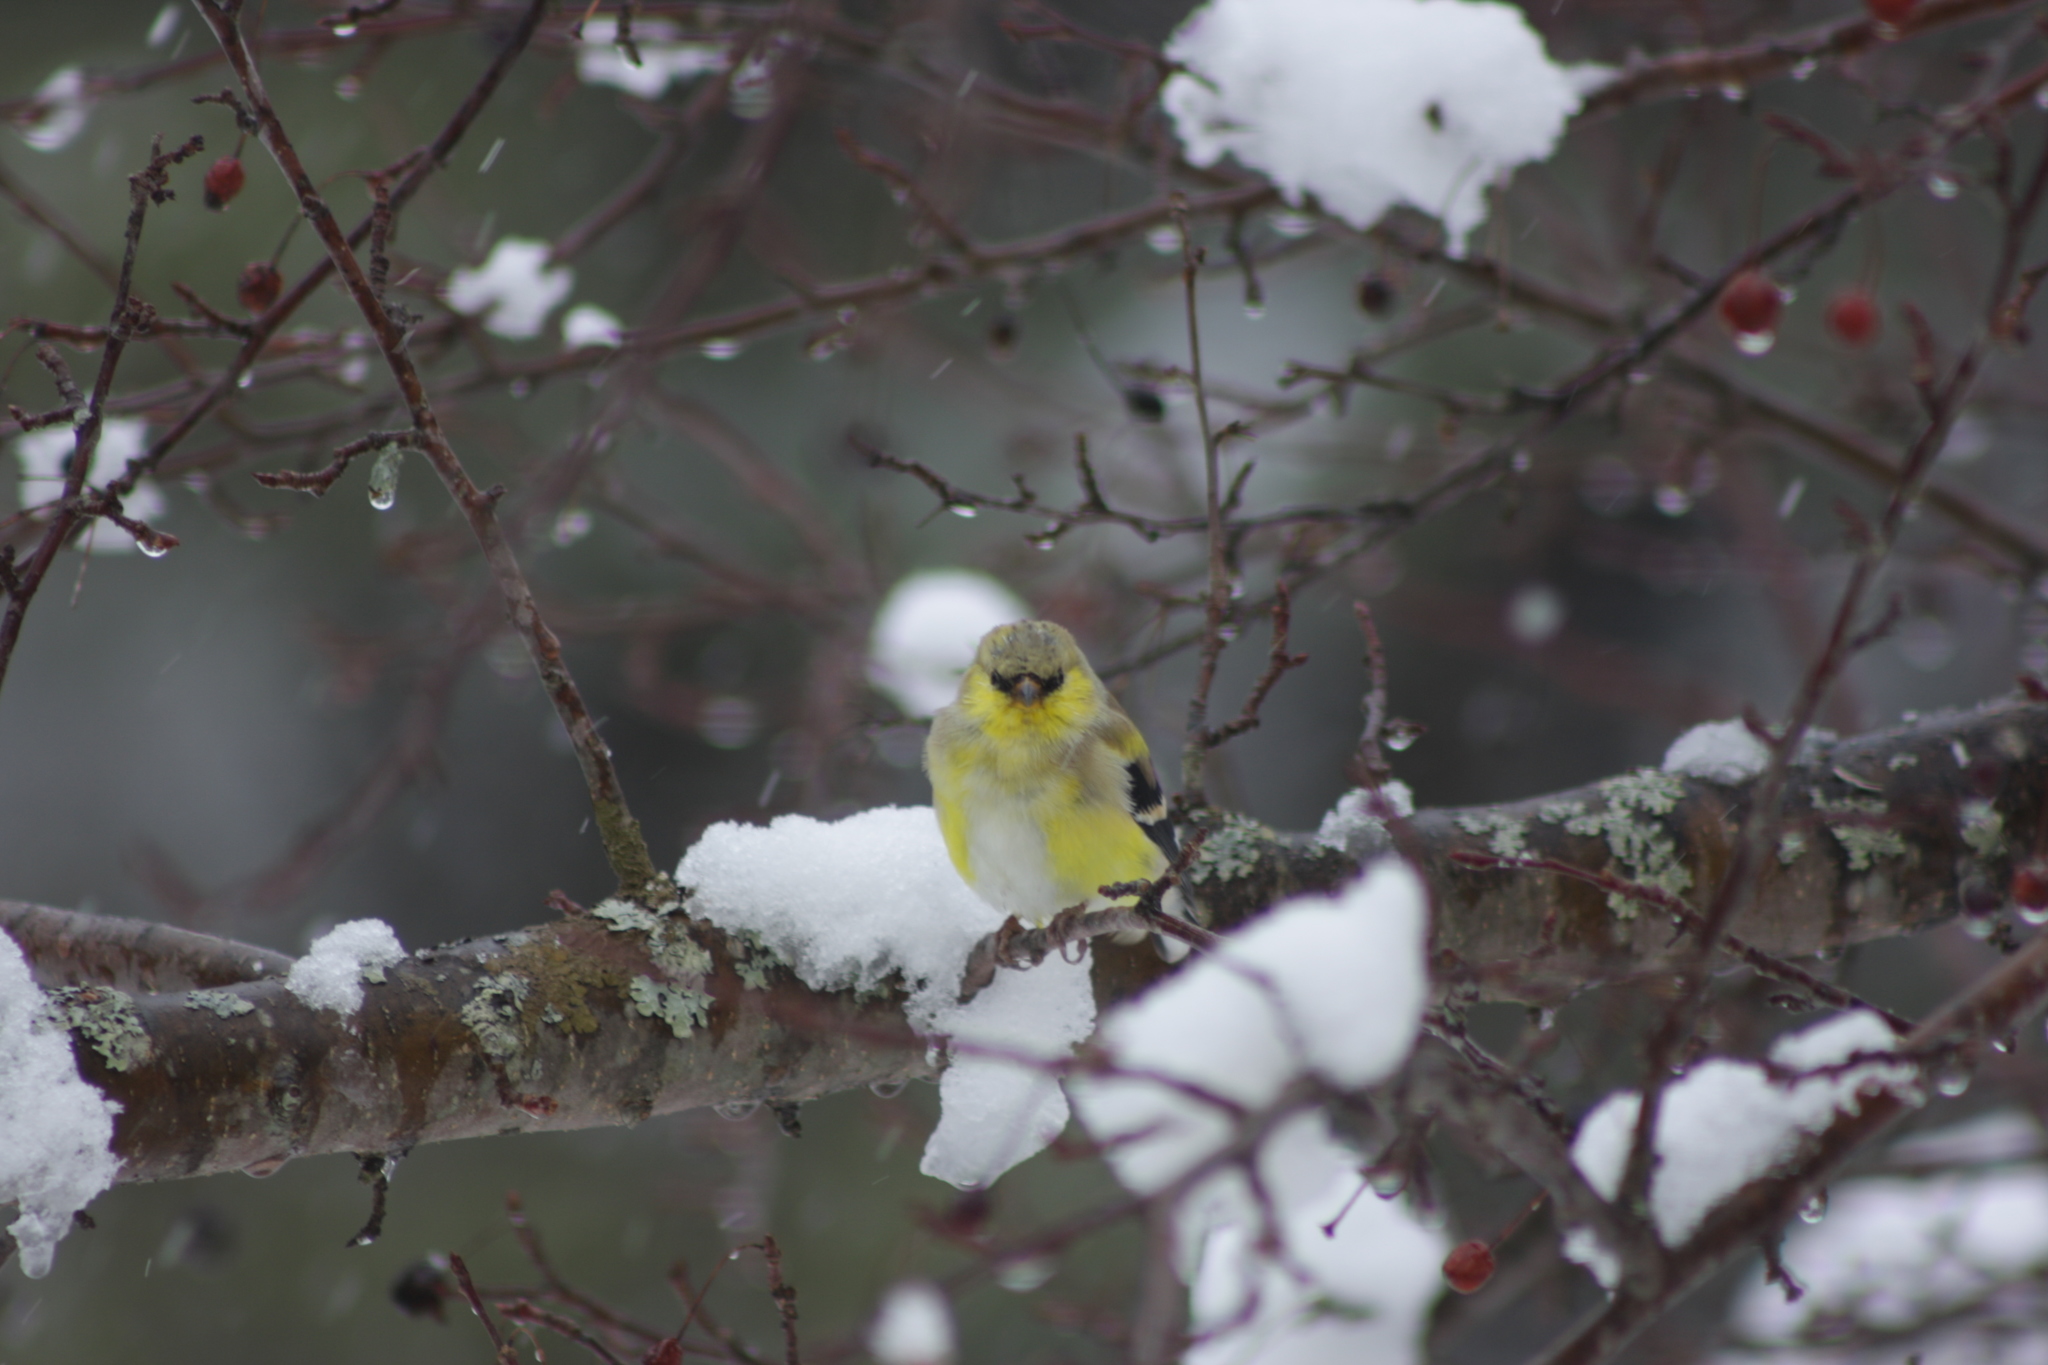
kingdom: Animalia
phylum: Chordata
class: Aves
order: Passeriformes
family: Fringillidae
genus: Spinus
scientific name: Spinus tristis
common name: American goldfinch
